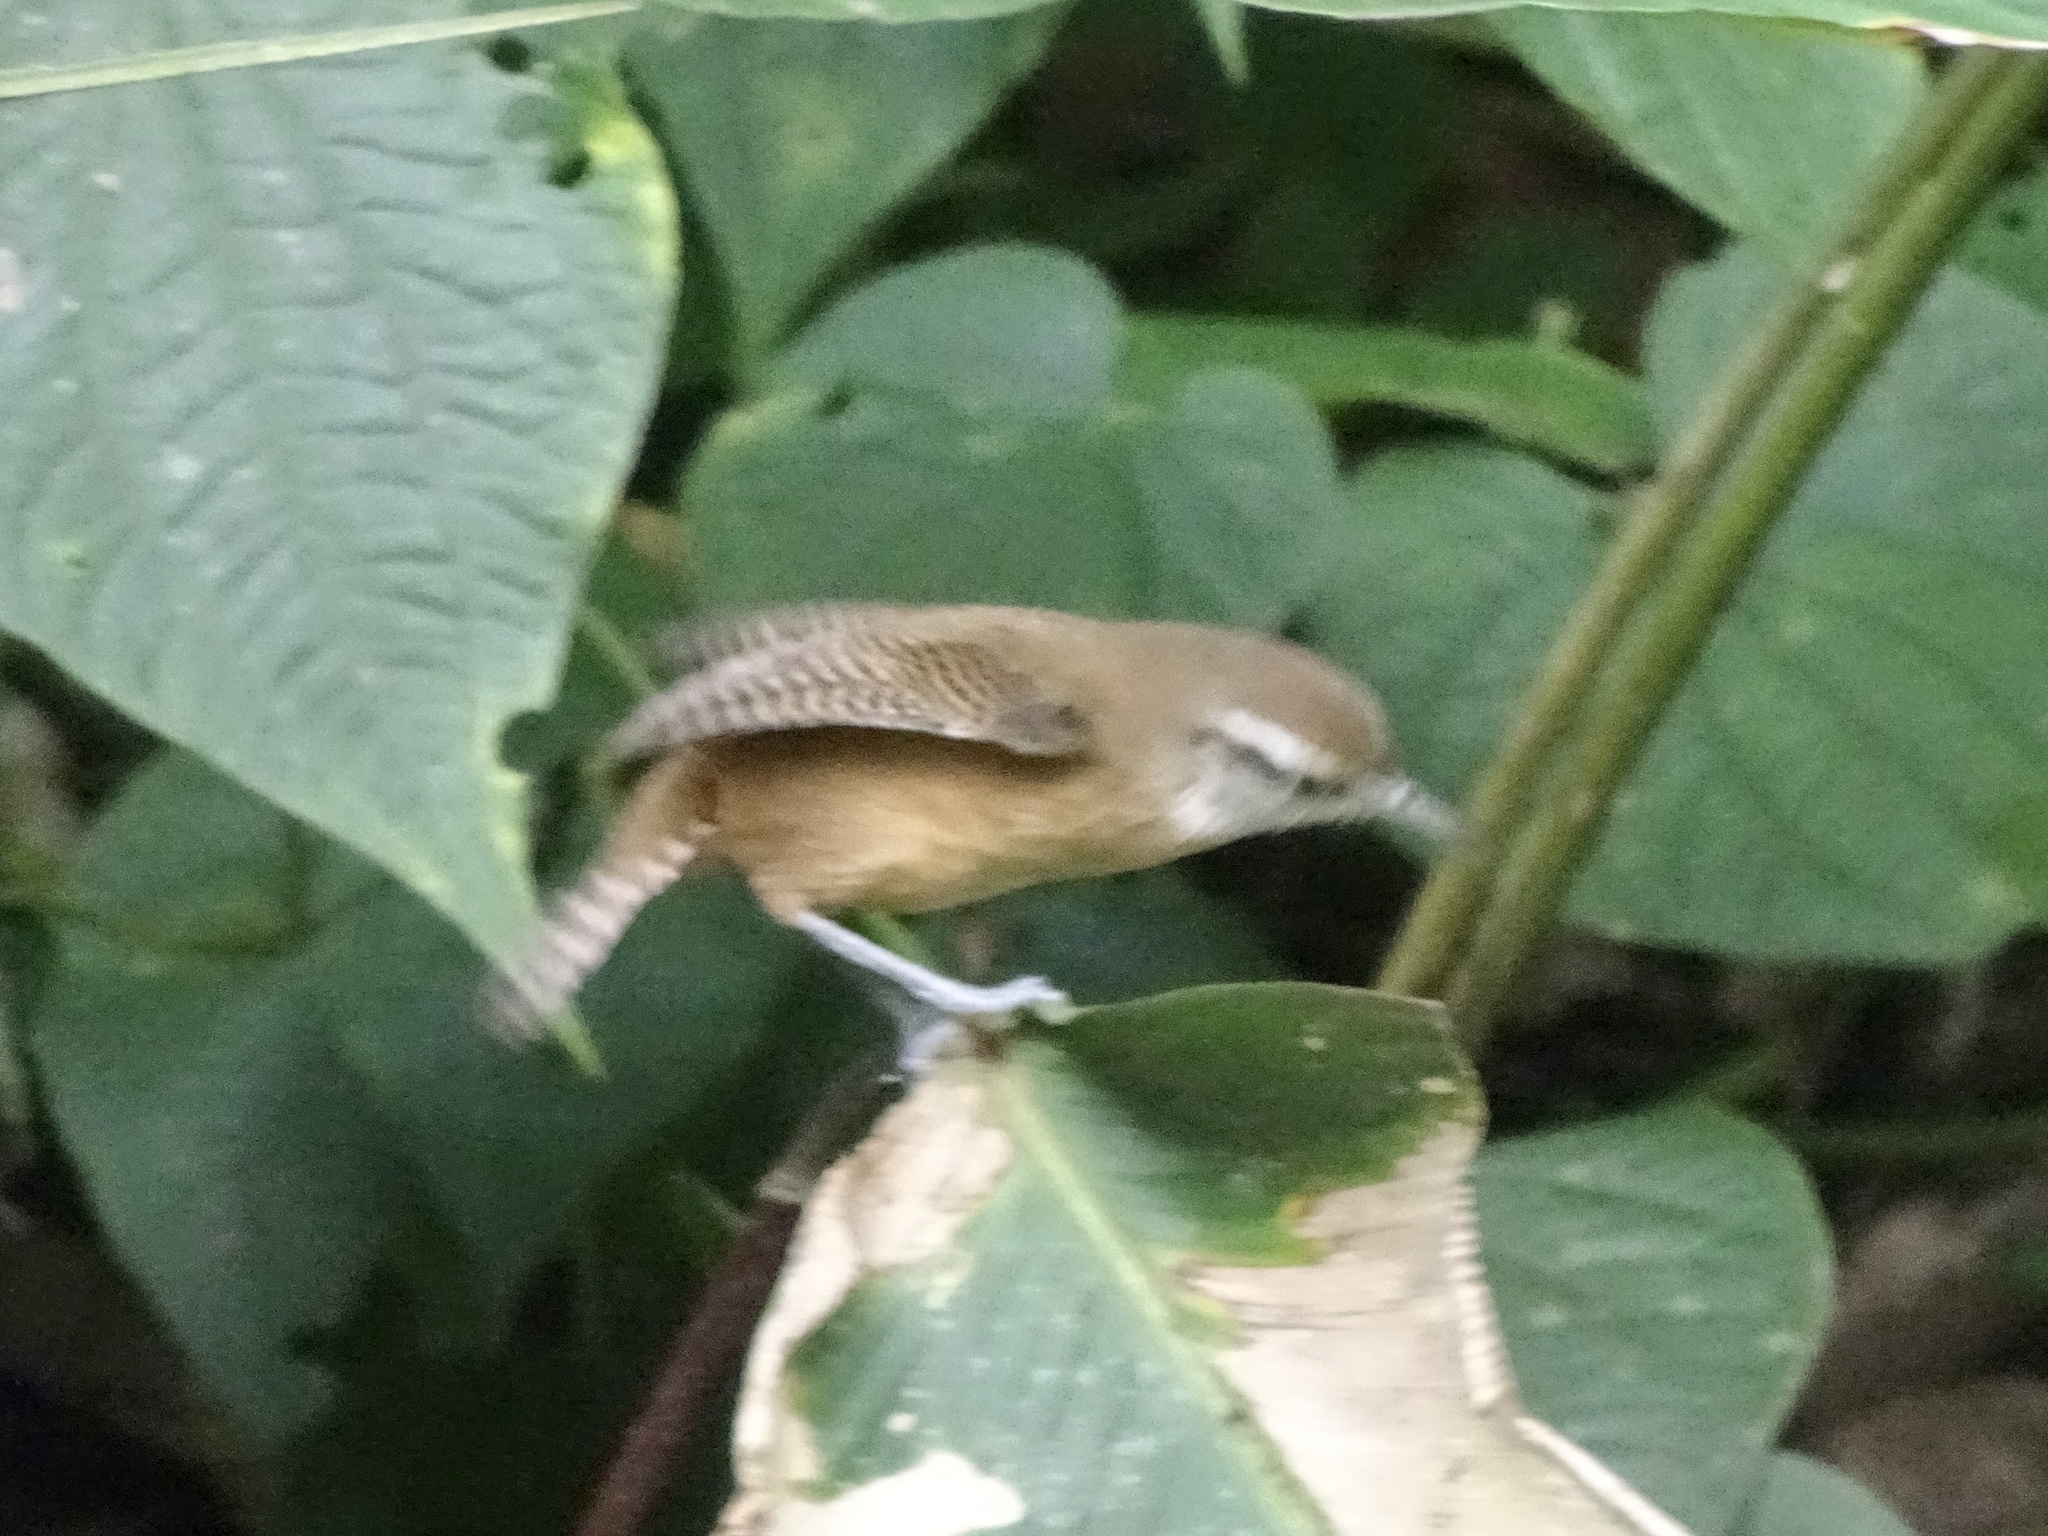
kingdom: Animalia
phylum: Chordata
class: Aves
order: Passeriformes
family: Troglodytidae
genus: Cantorchilus
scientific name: Cantorchilus leucotis
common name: Buff-breasted wren
